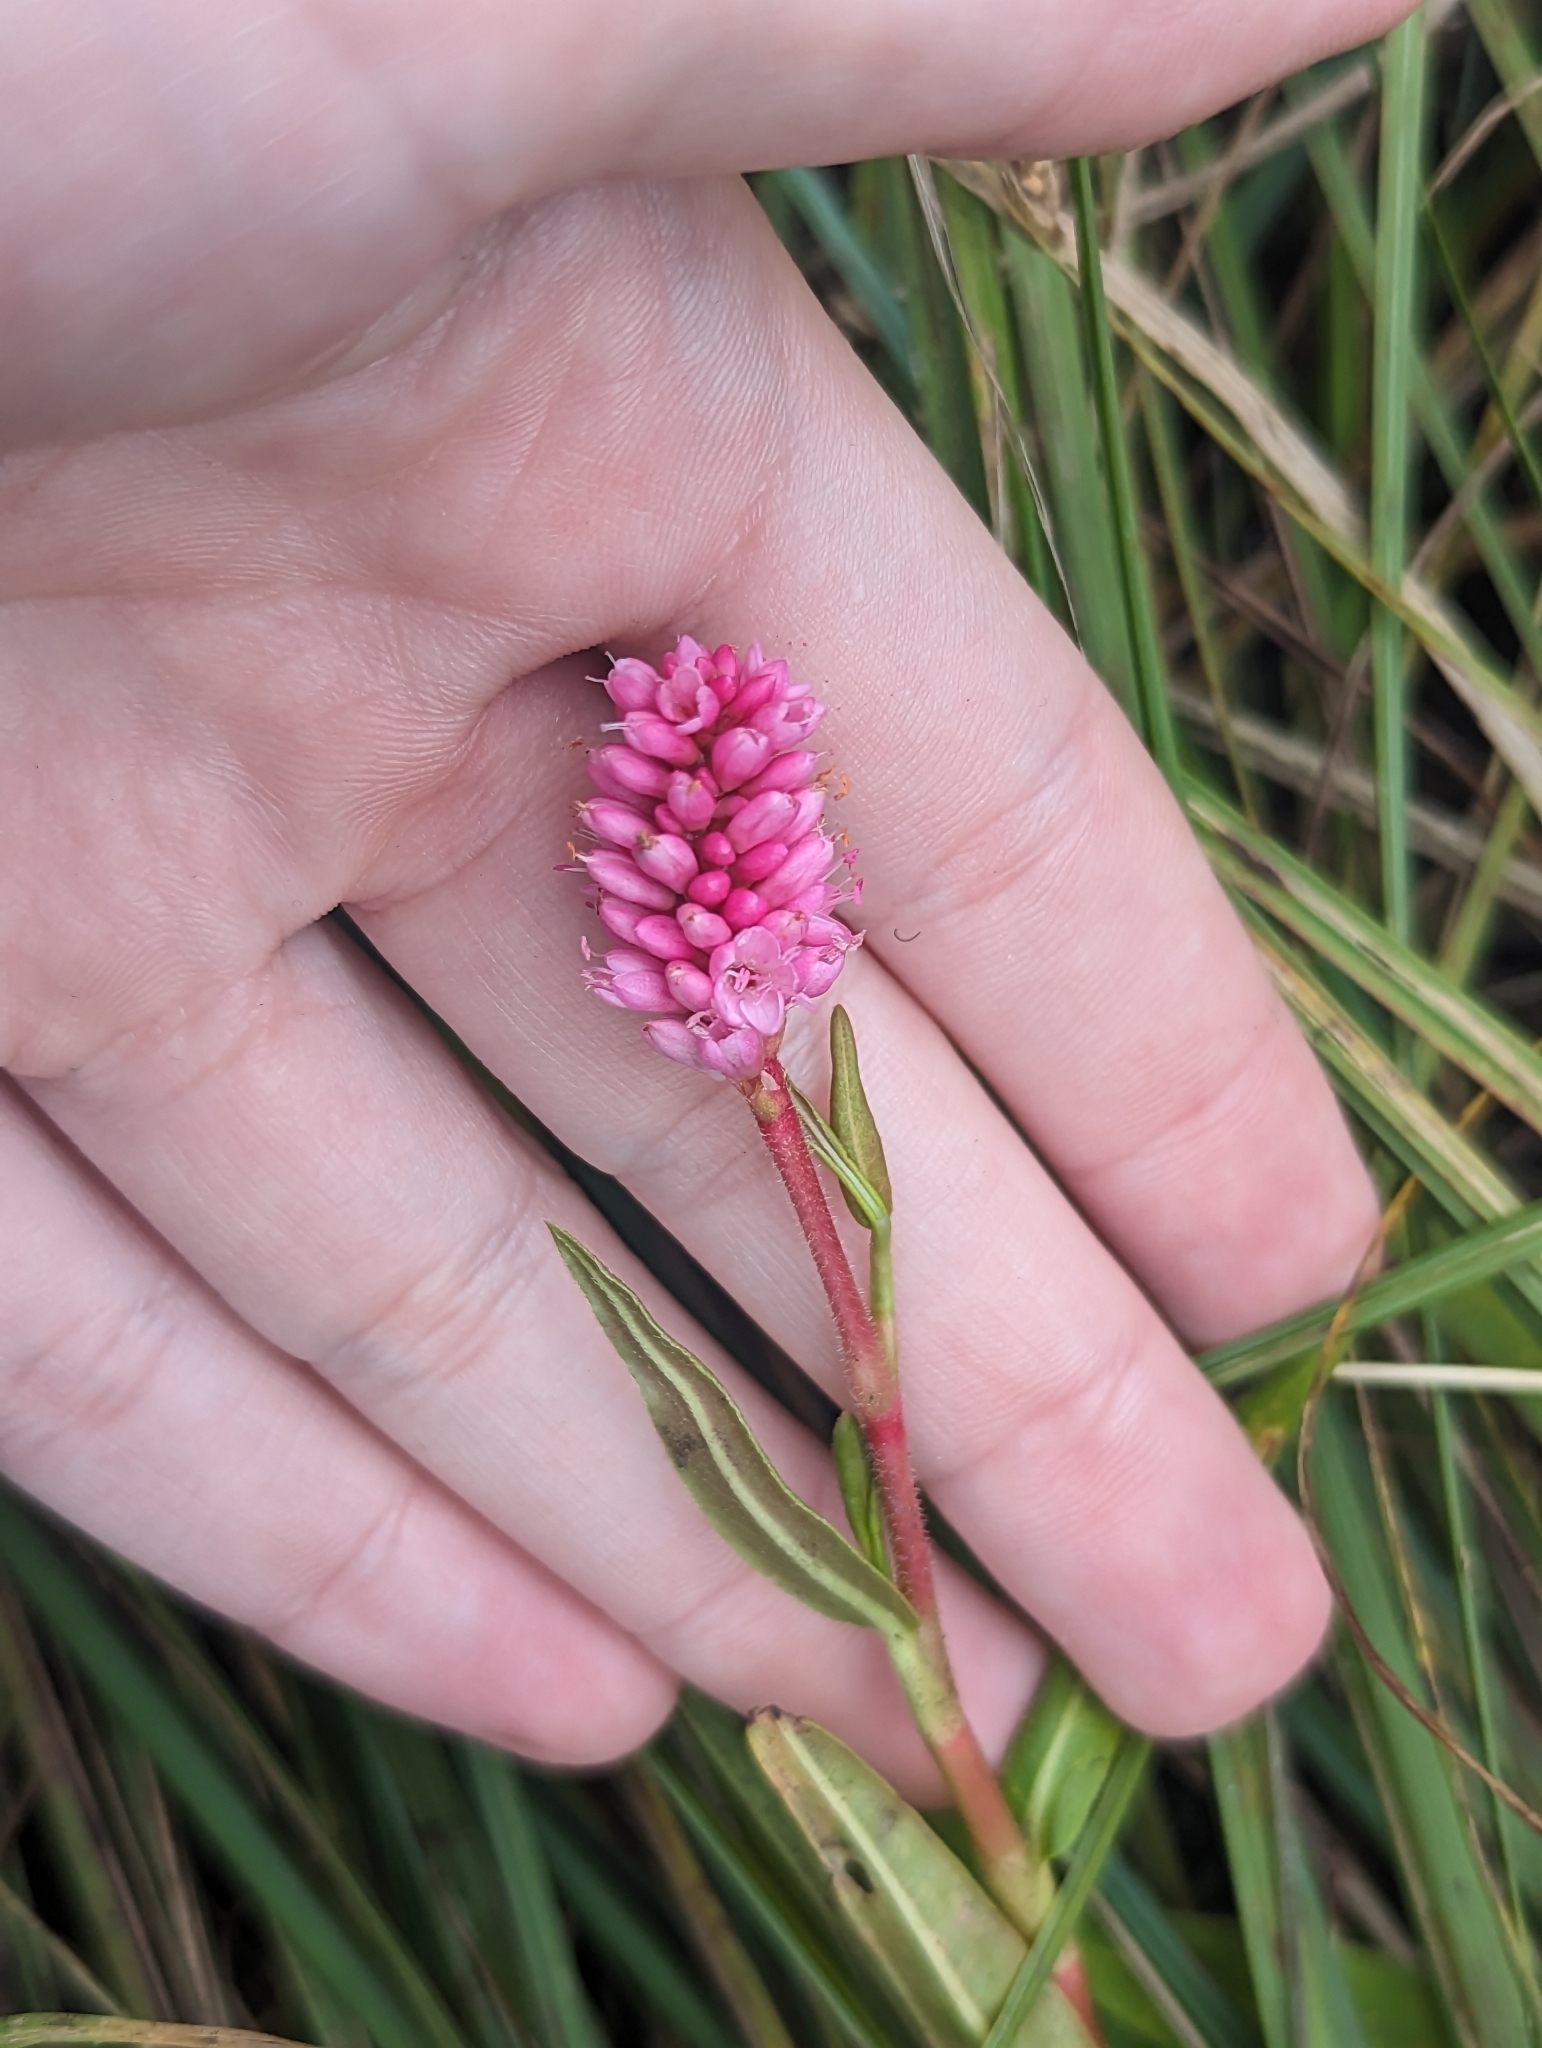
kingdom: Plantae
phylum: Tracheophyta
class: Magnoliopsida
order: Caryophyllales
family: Polygonaceae
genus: Persicaria
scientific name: Persicaria amphibia
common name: Amphibious bistort
